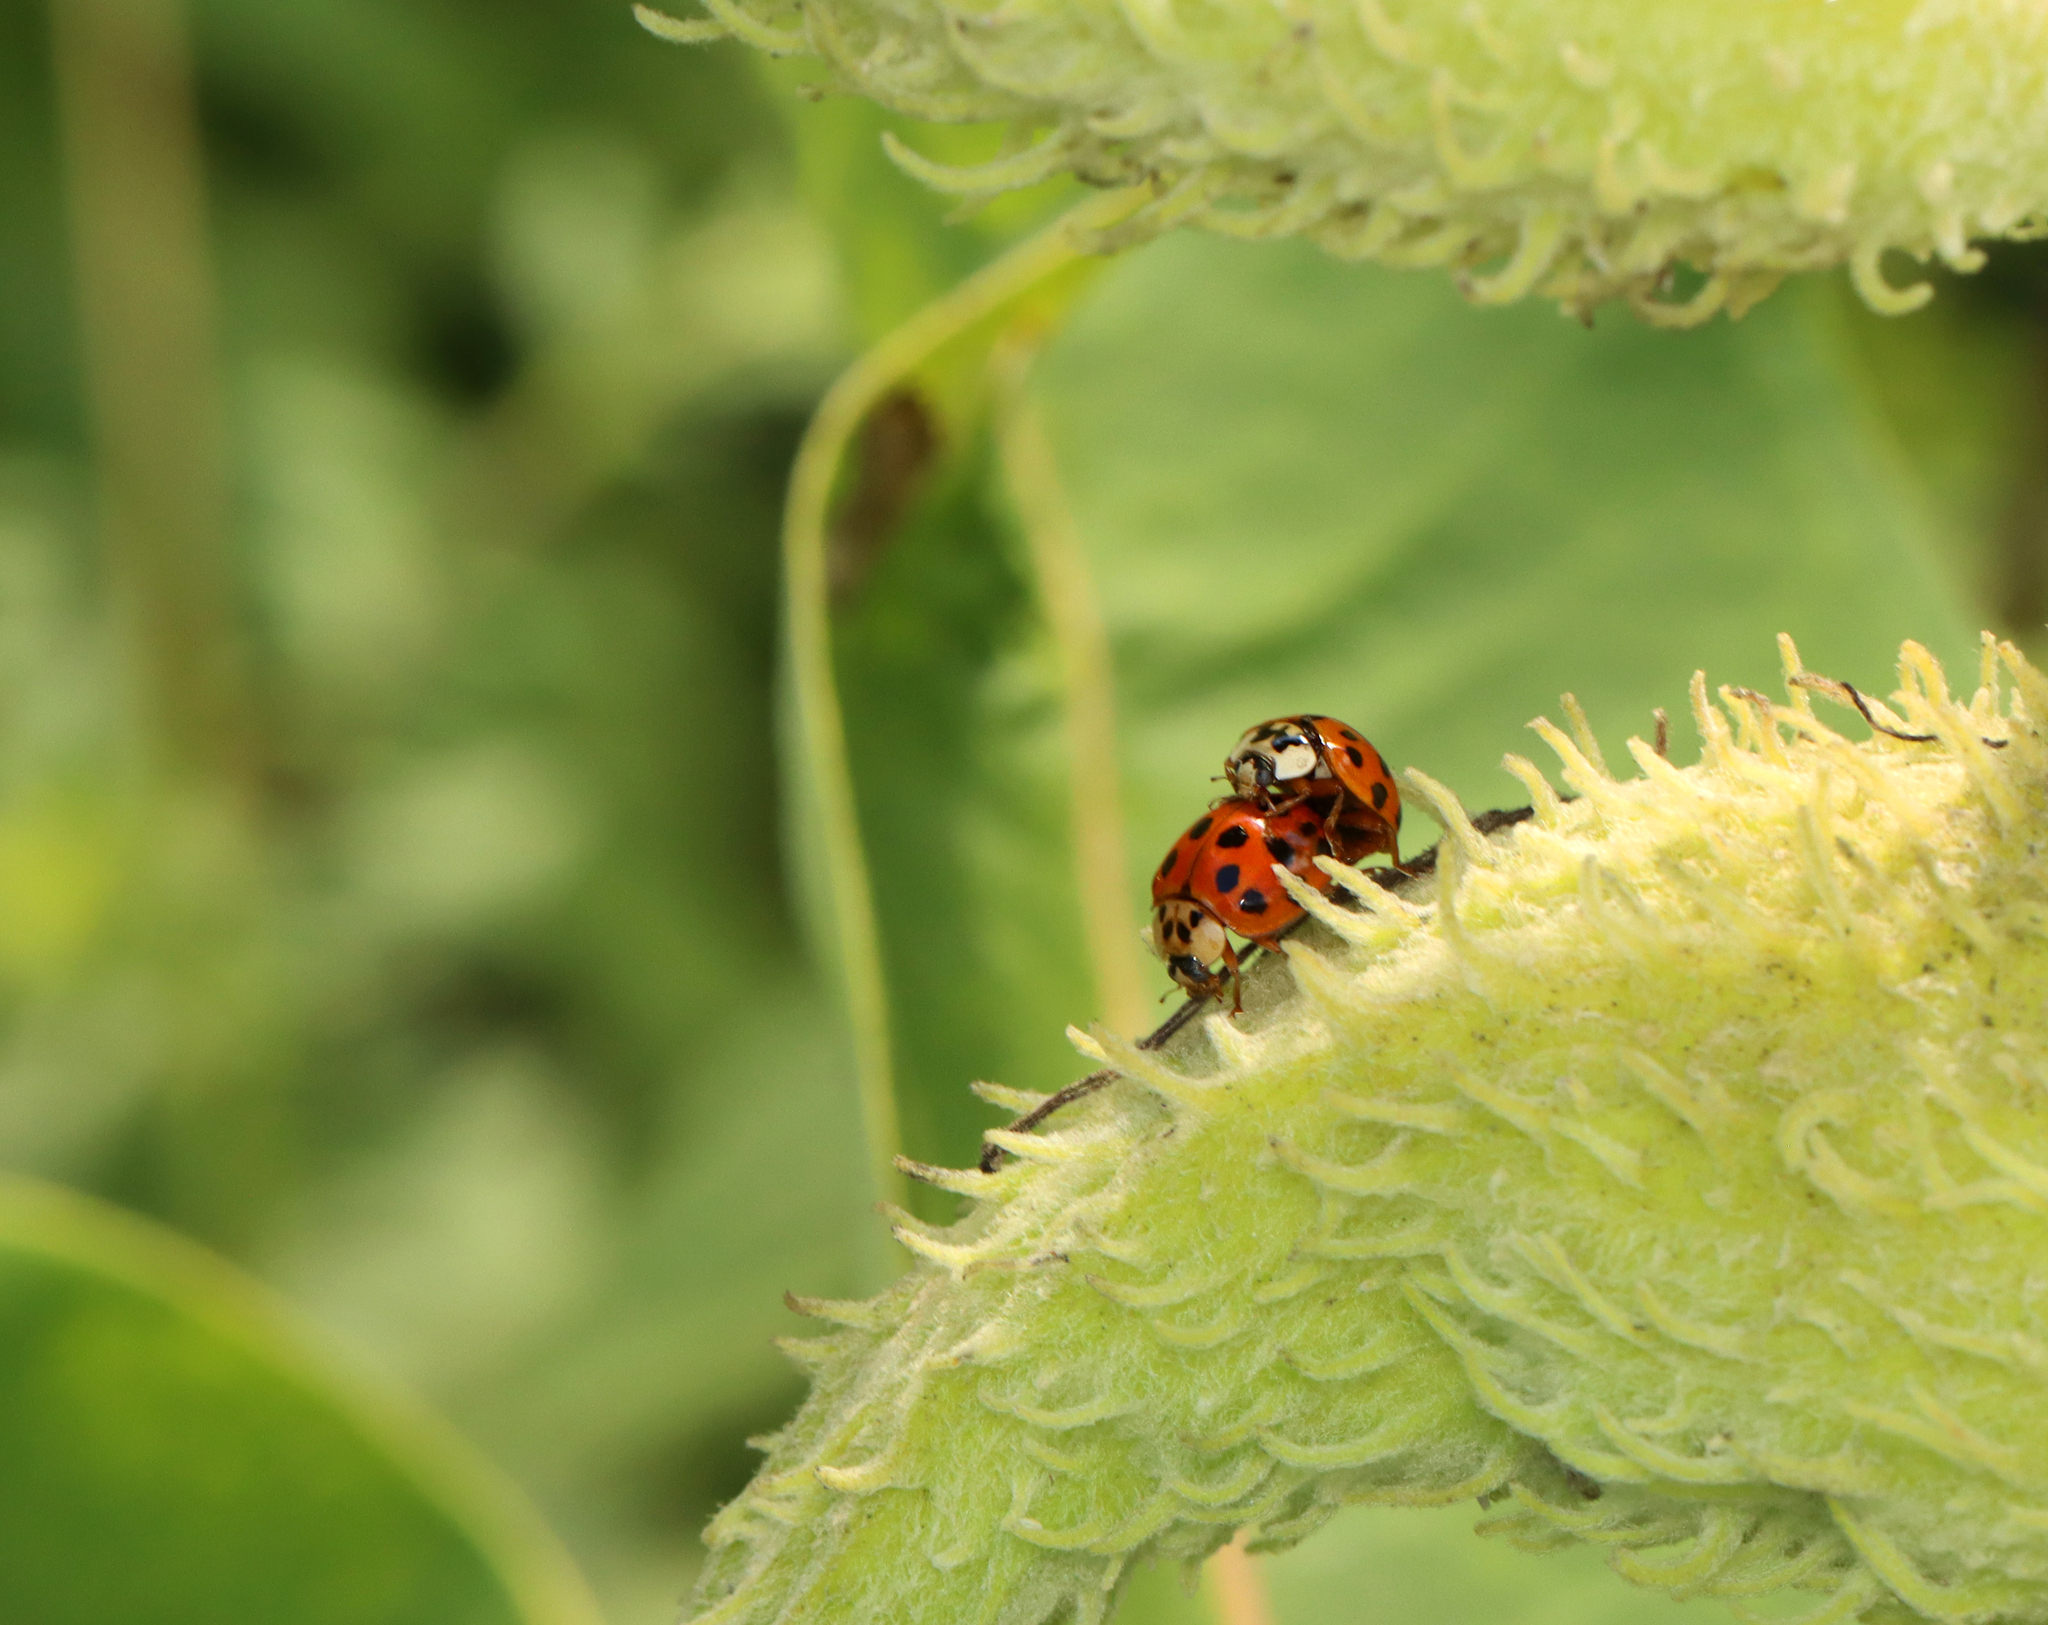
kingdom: Animalia
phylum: Arthropoda
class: Insecta
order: Coleoptera
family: Coccinellidae
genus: Harmonia
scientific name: Harmonia axyridis
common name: Harlequin ladybird
